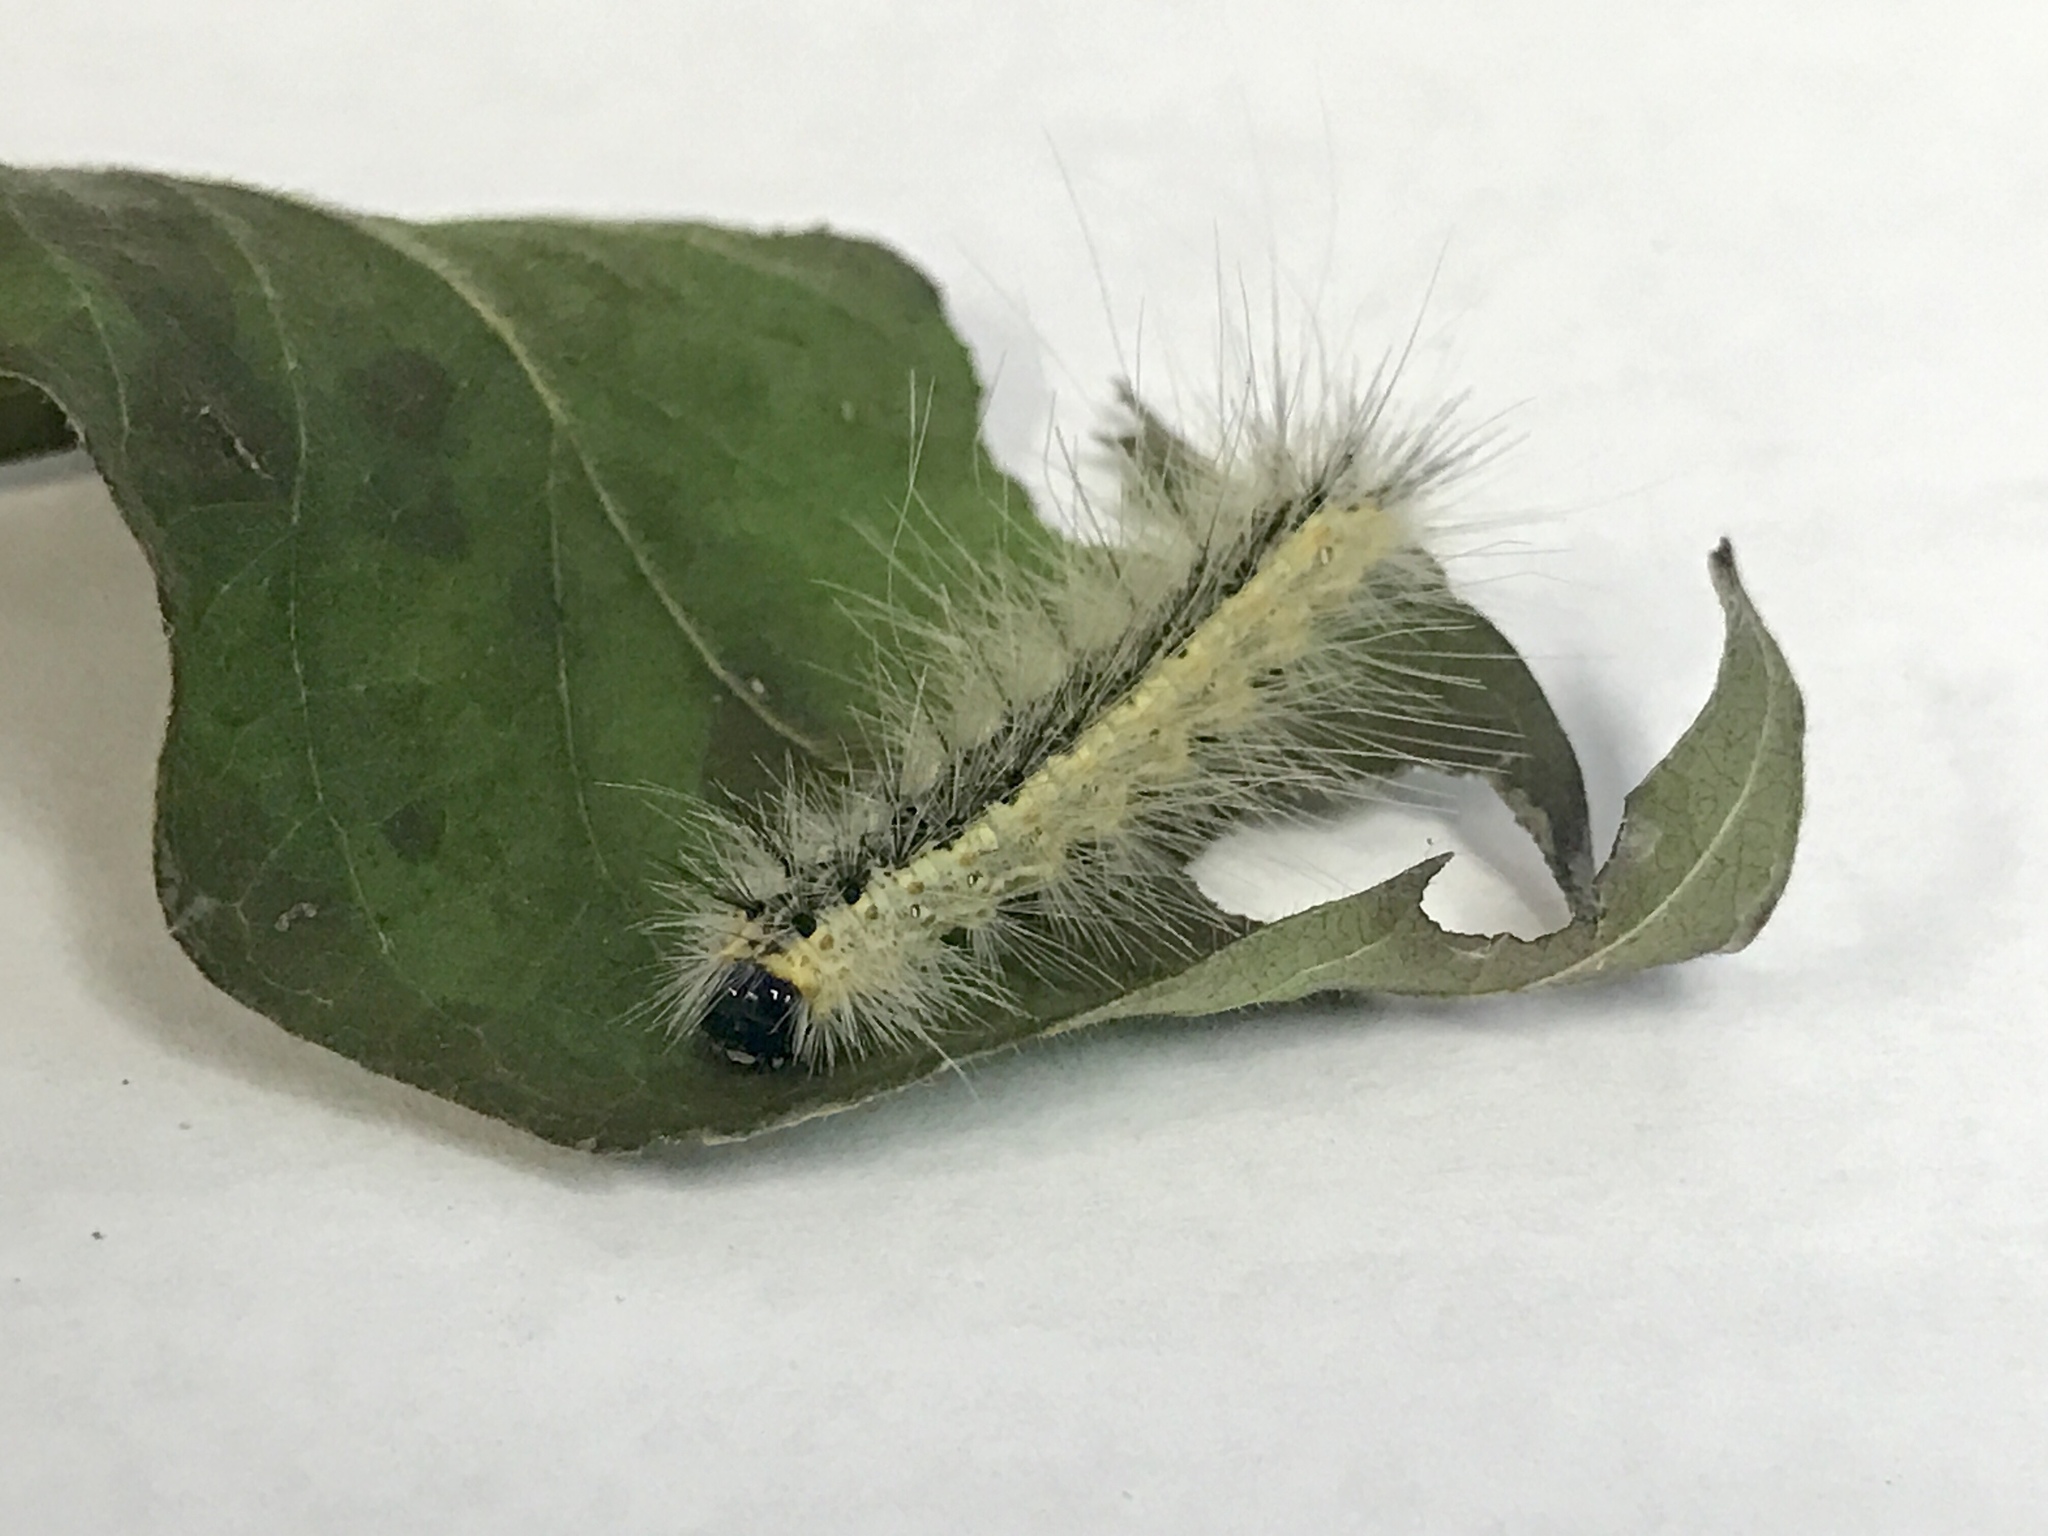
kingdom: Animalia
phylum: Arthropoda
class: Insecta
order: Lepidoptera
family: Erebidae
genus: Hyphantria
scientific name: Hyphantria cunea
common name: American white moth
